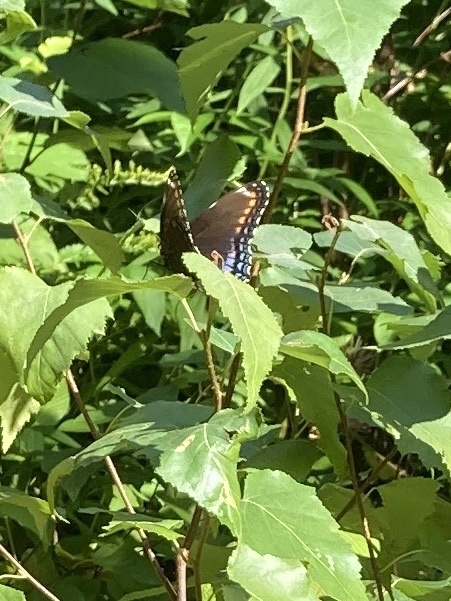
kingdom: Animalia
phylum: Arthropoda
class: Insecta
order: Lepidoptera
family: Nymphalidae
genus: Limenitis
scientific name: Limenitis astyanax
